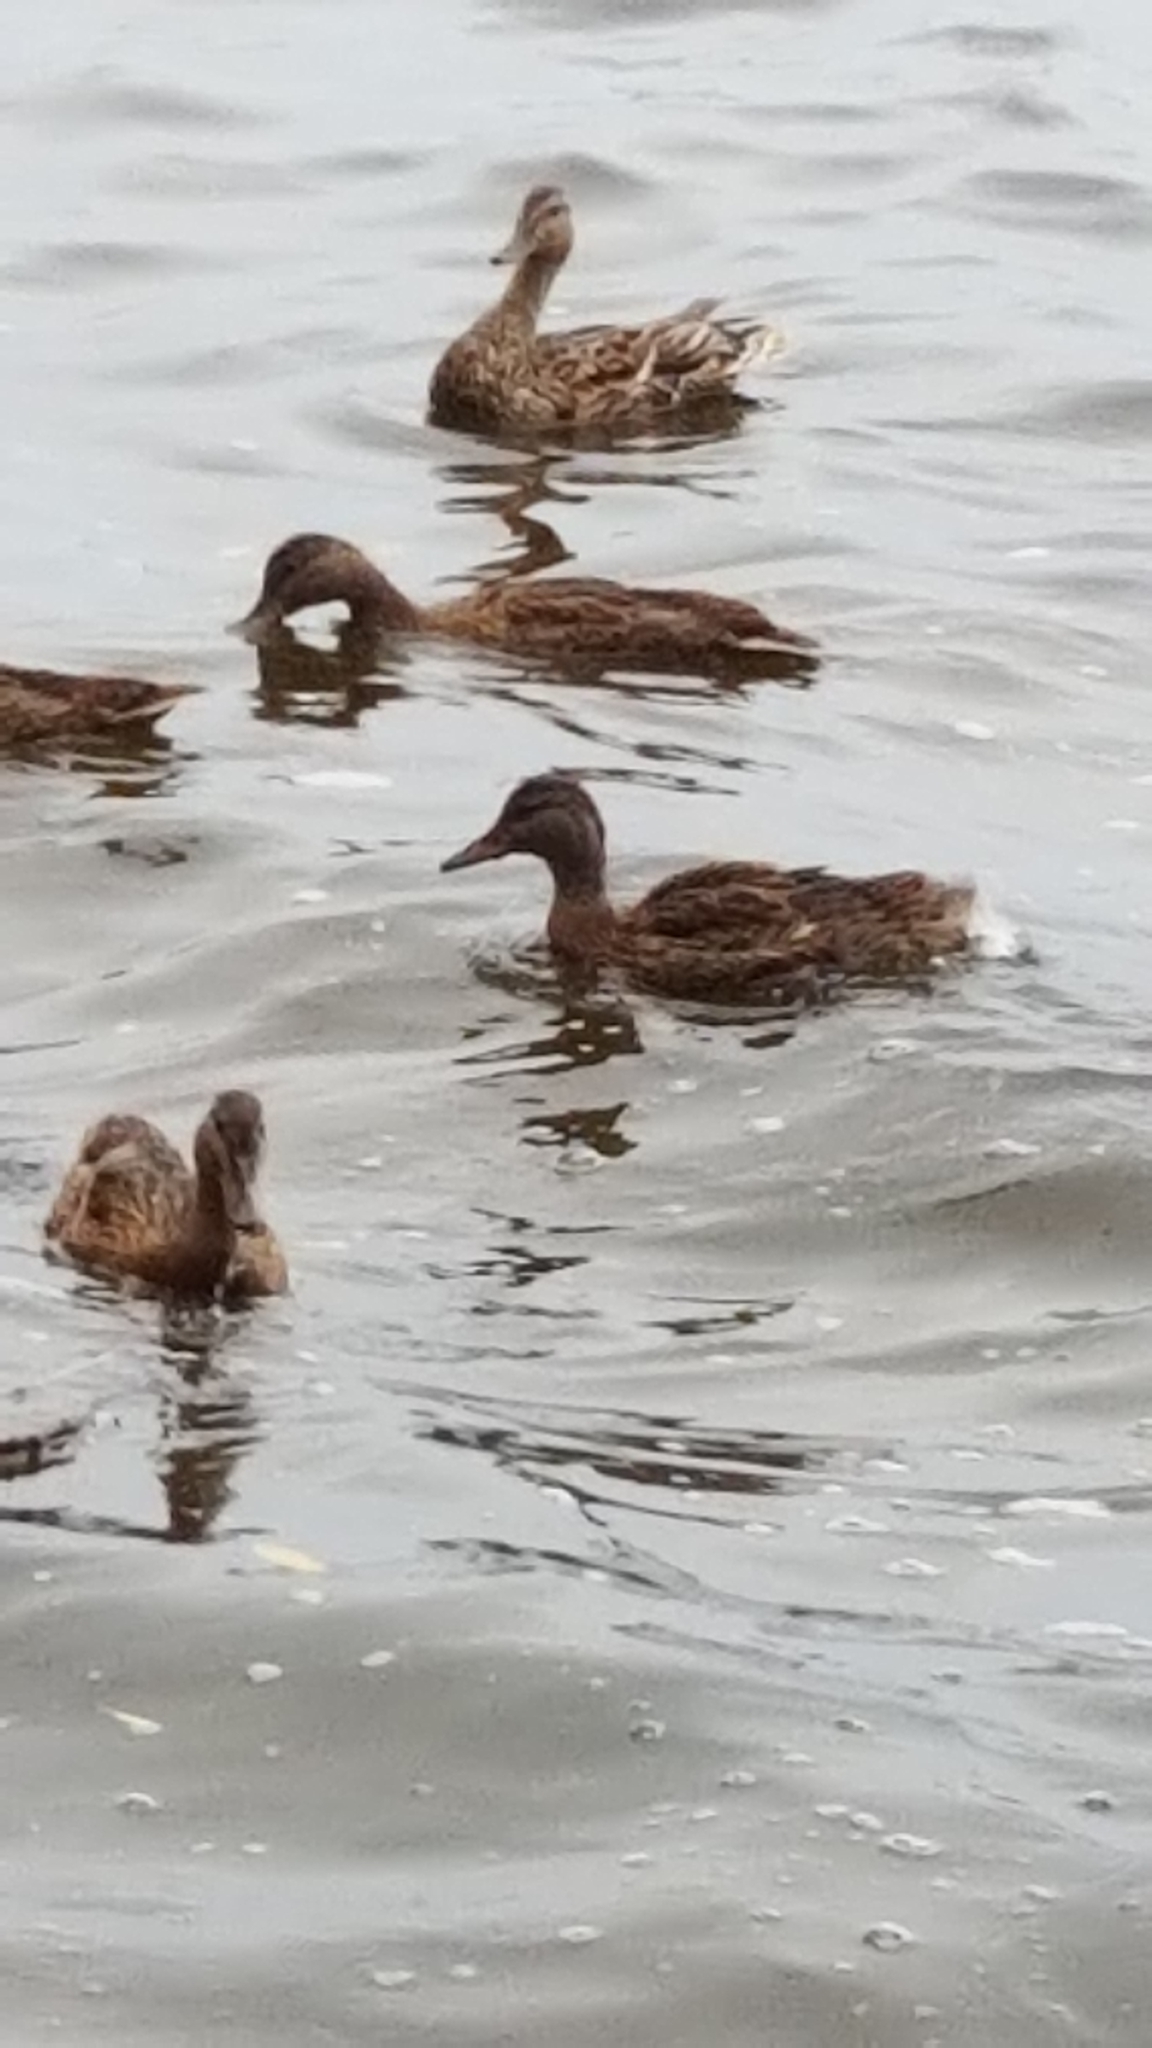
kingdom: Animalia
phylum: Chordata
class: Aves
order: Anseriformes
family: Anatidae
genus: Anas
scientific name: Anas platyrhynchos
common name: Mallard
